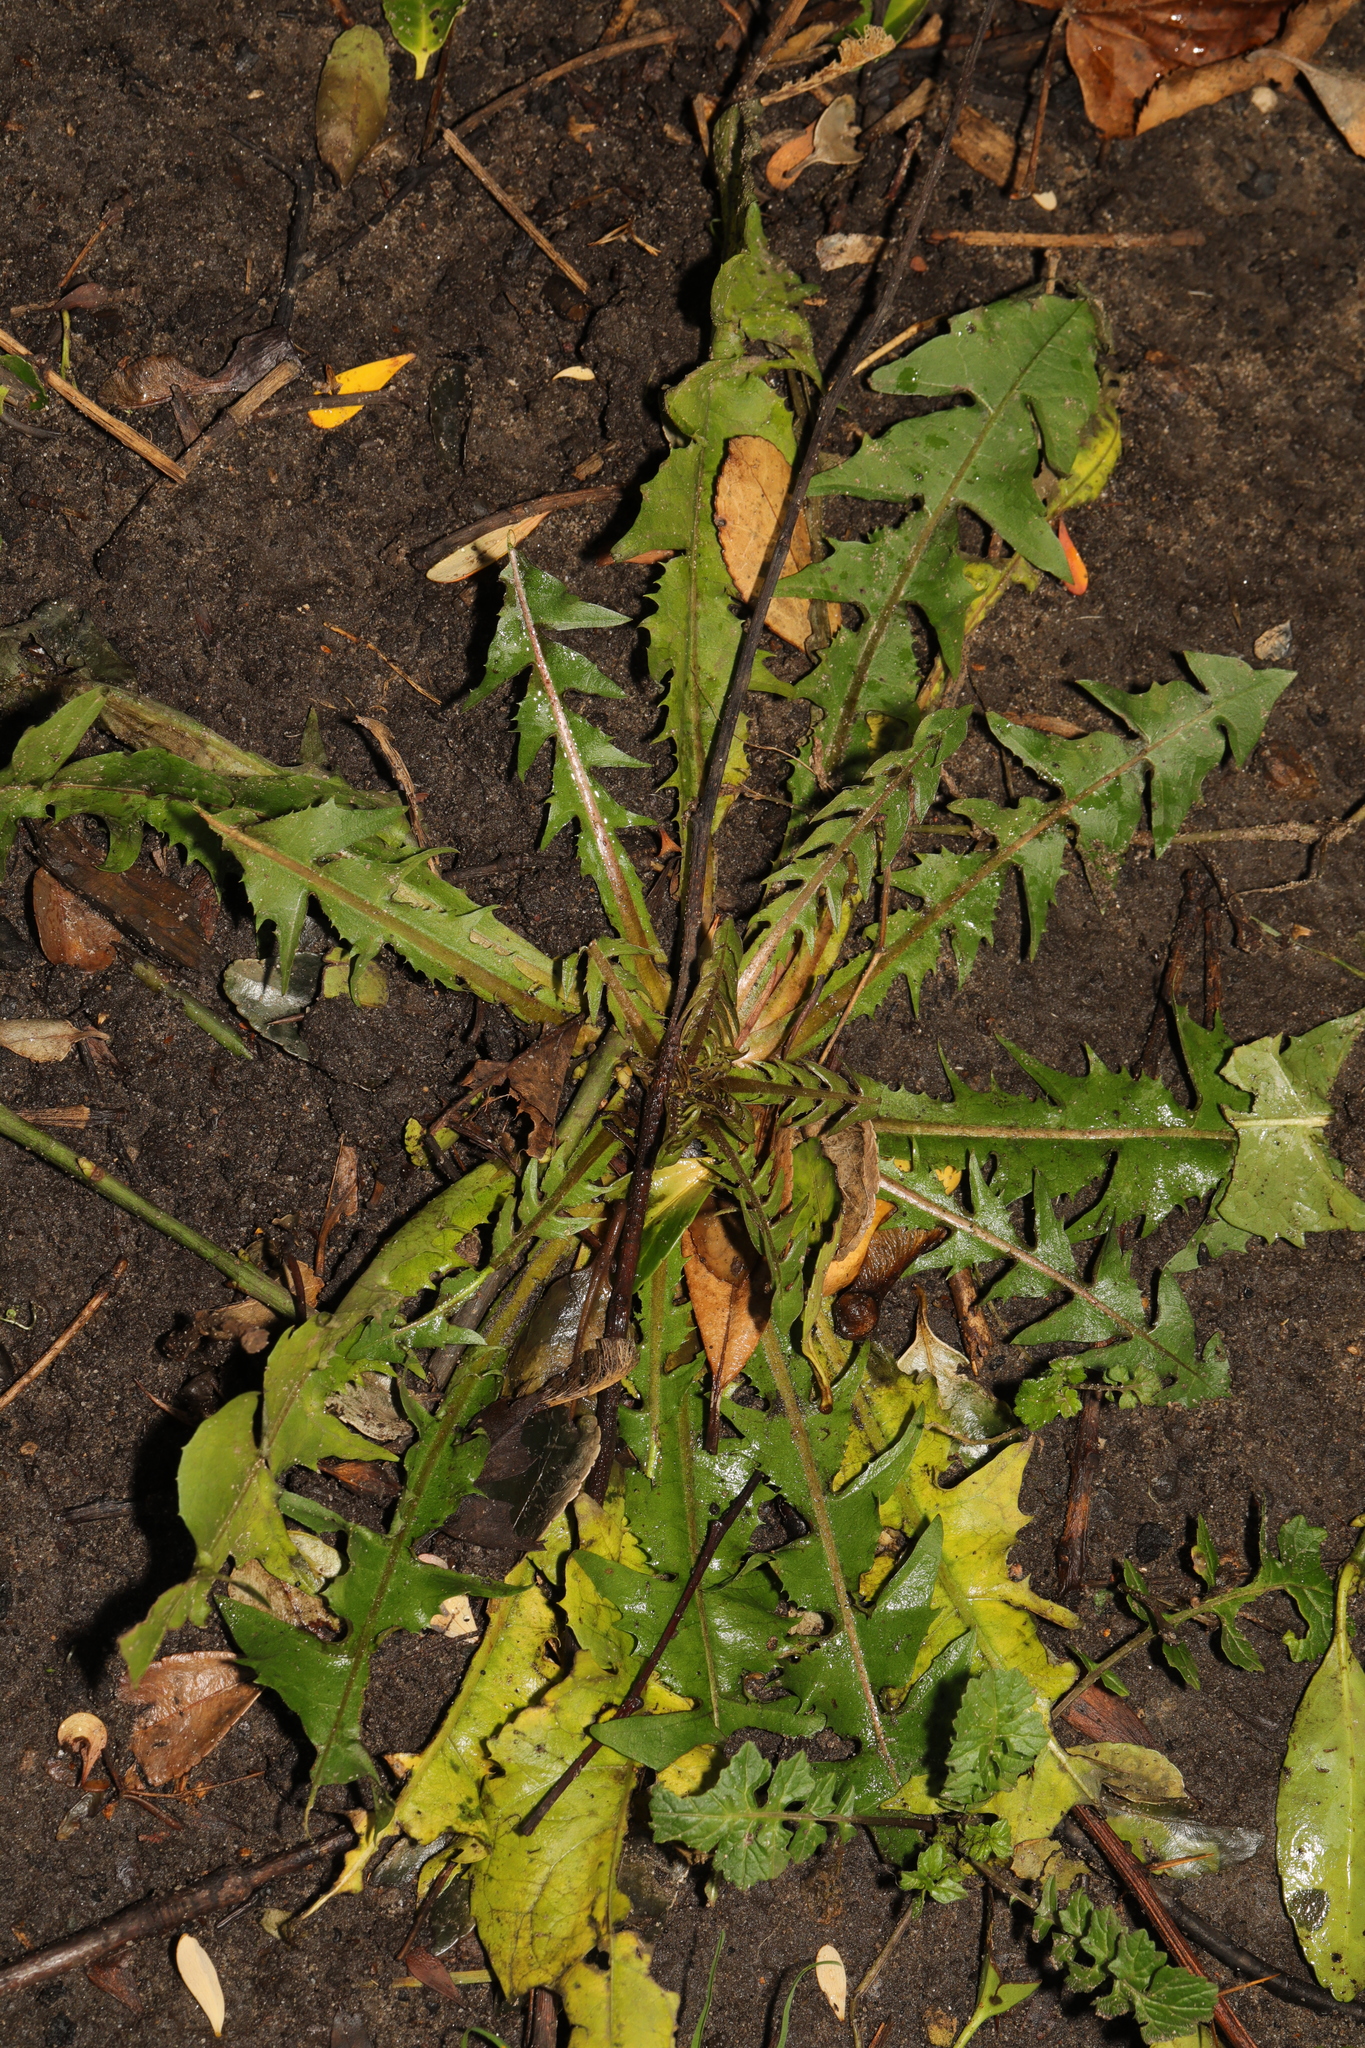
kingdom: Plantae
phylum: Tracheophyta
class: Magnoliopsida
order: Asterales
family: Asteraceae
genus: Taraxacum
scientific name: Taraxacum officinale
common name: Common dandelion
